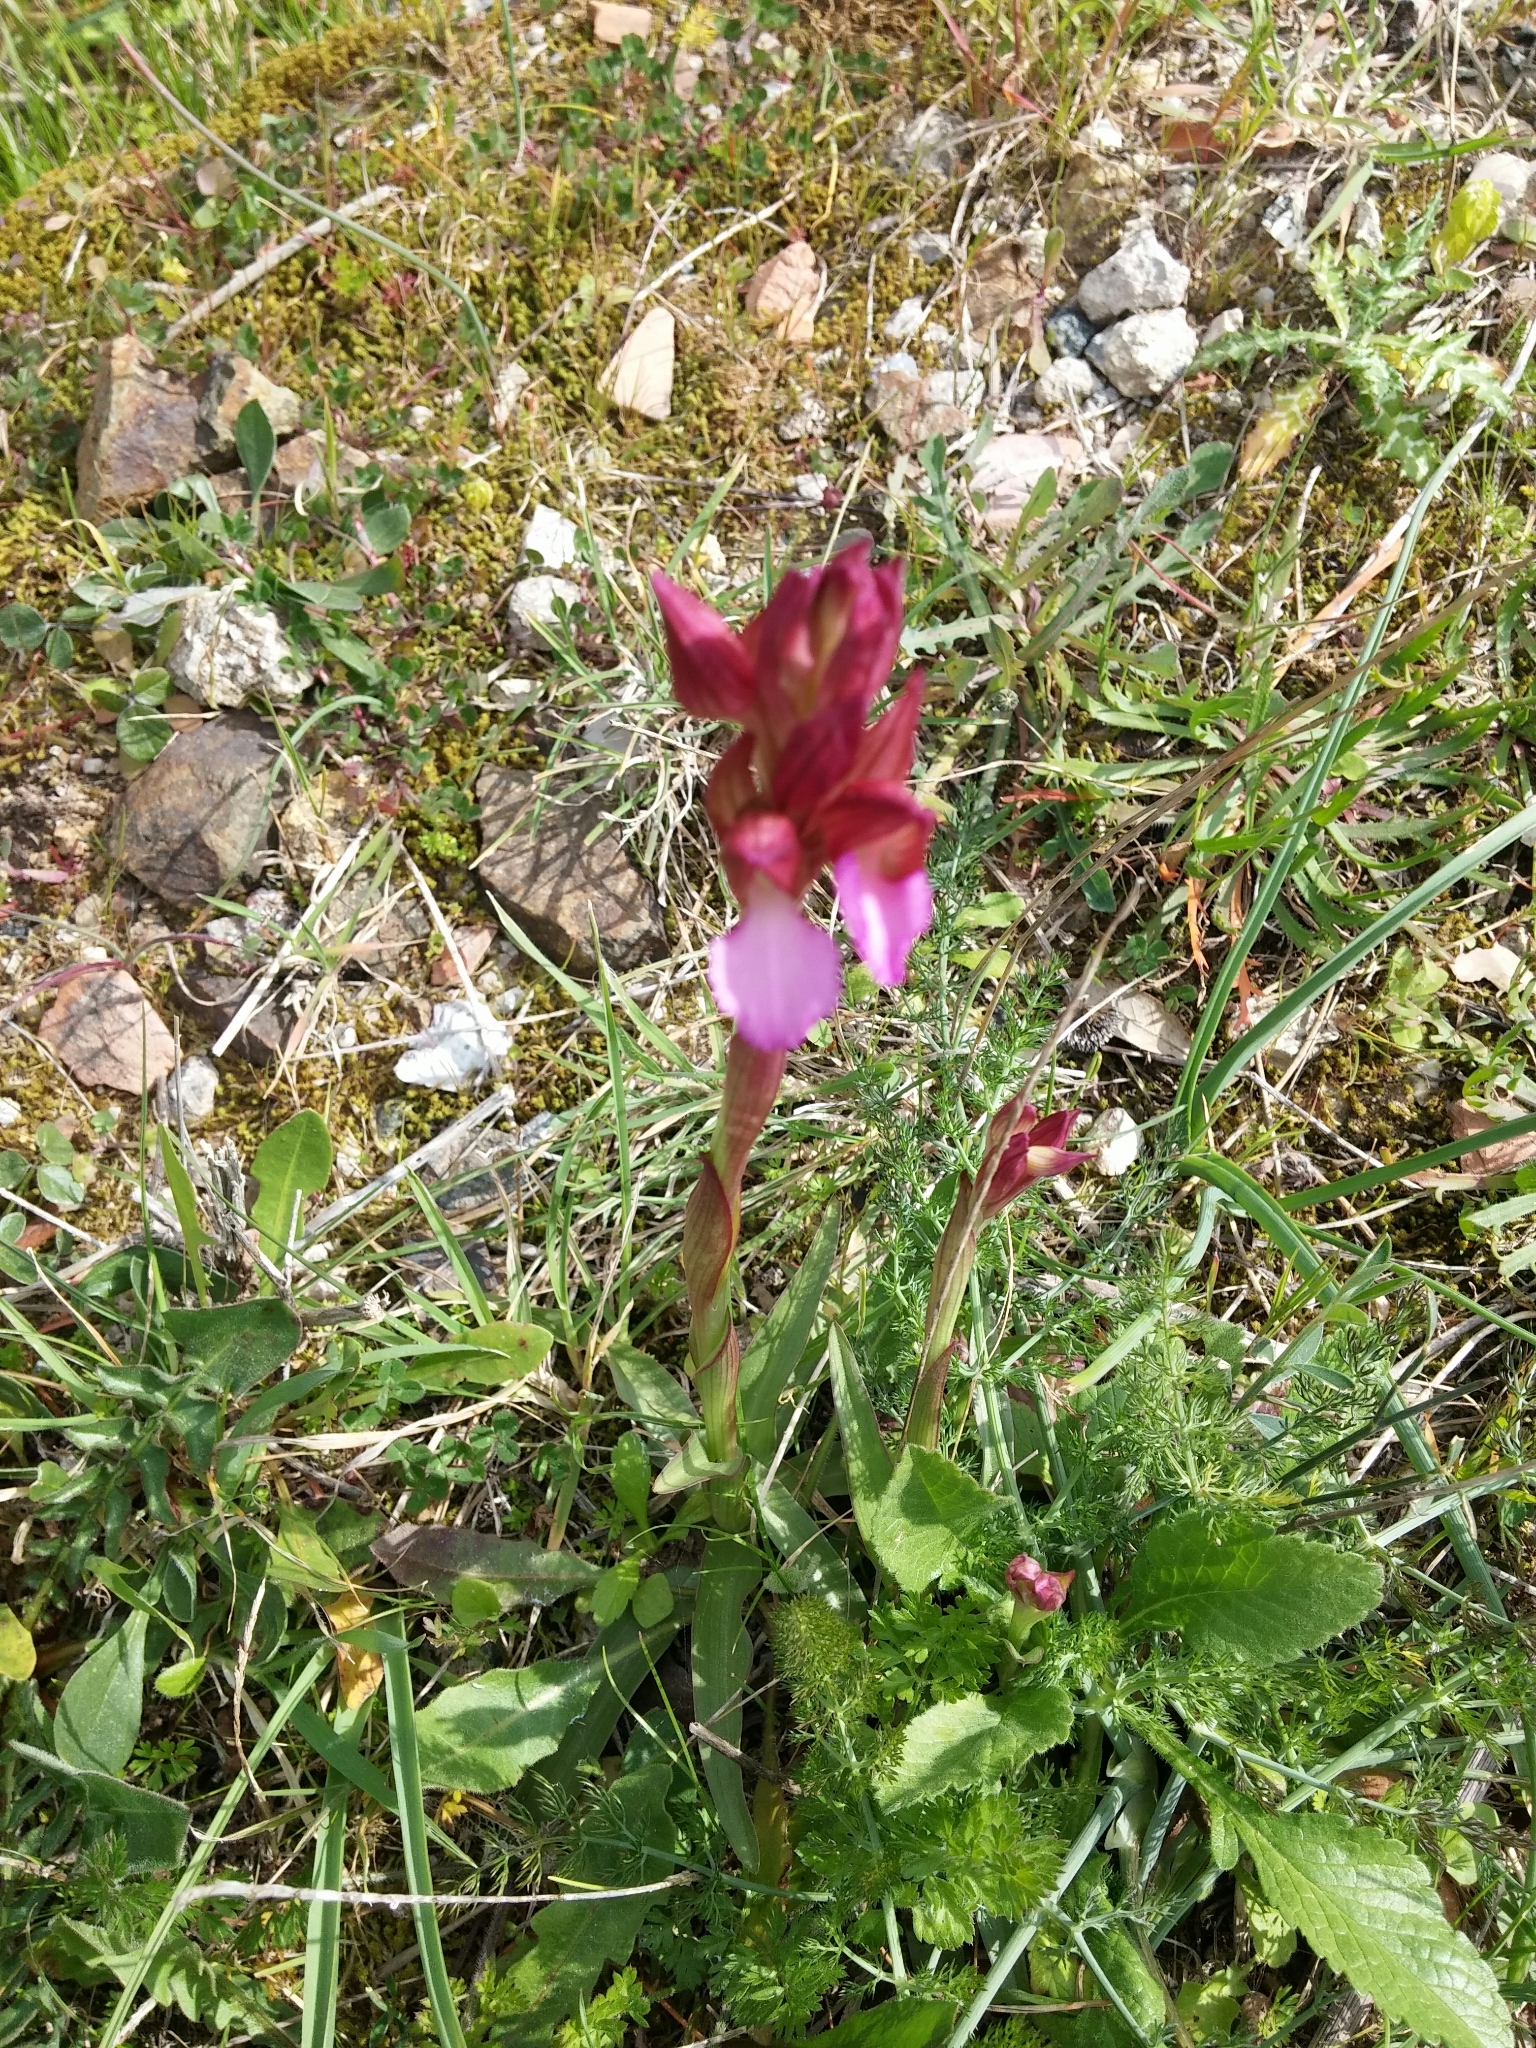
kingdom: Plantae
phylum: Tracheophyta
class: Liliopsida
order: Asparagales
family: Orchidaceae
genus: Anacamptis
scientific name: Anacamptis papilionacea
